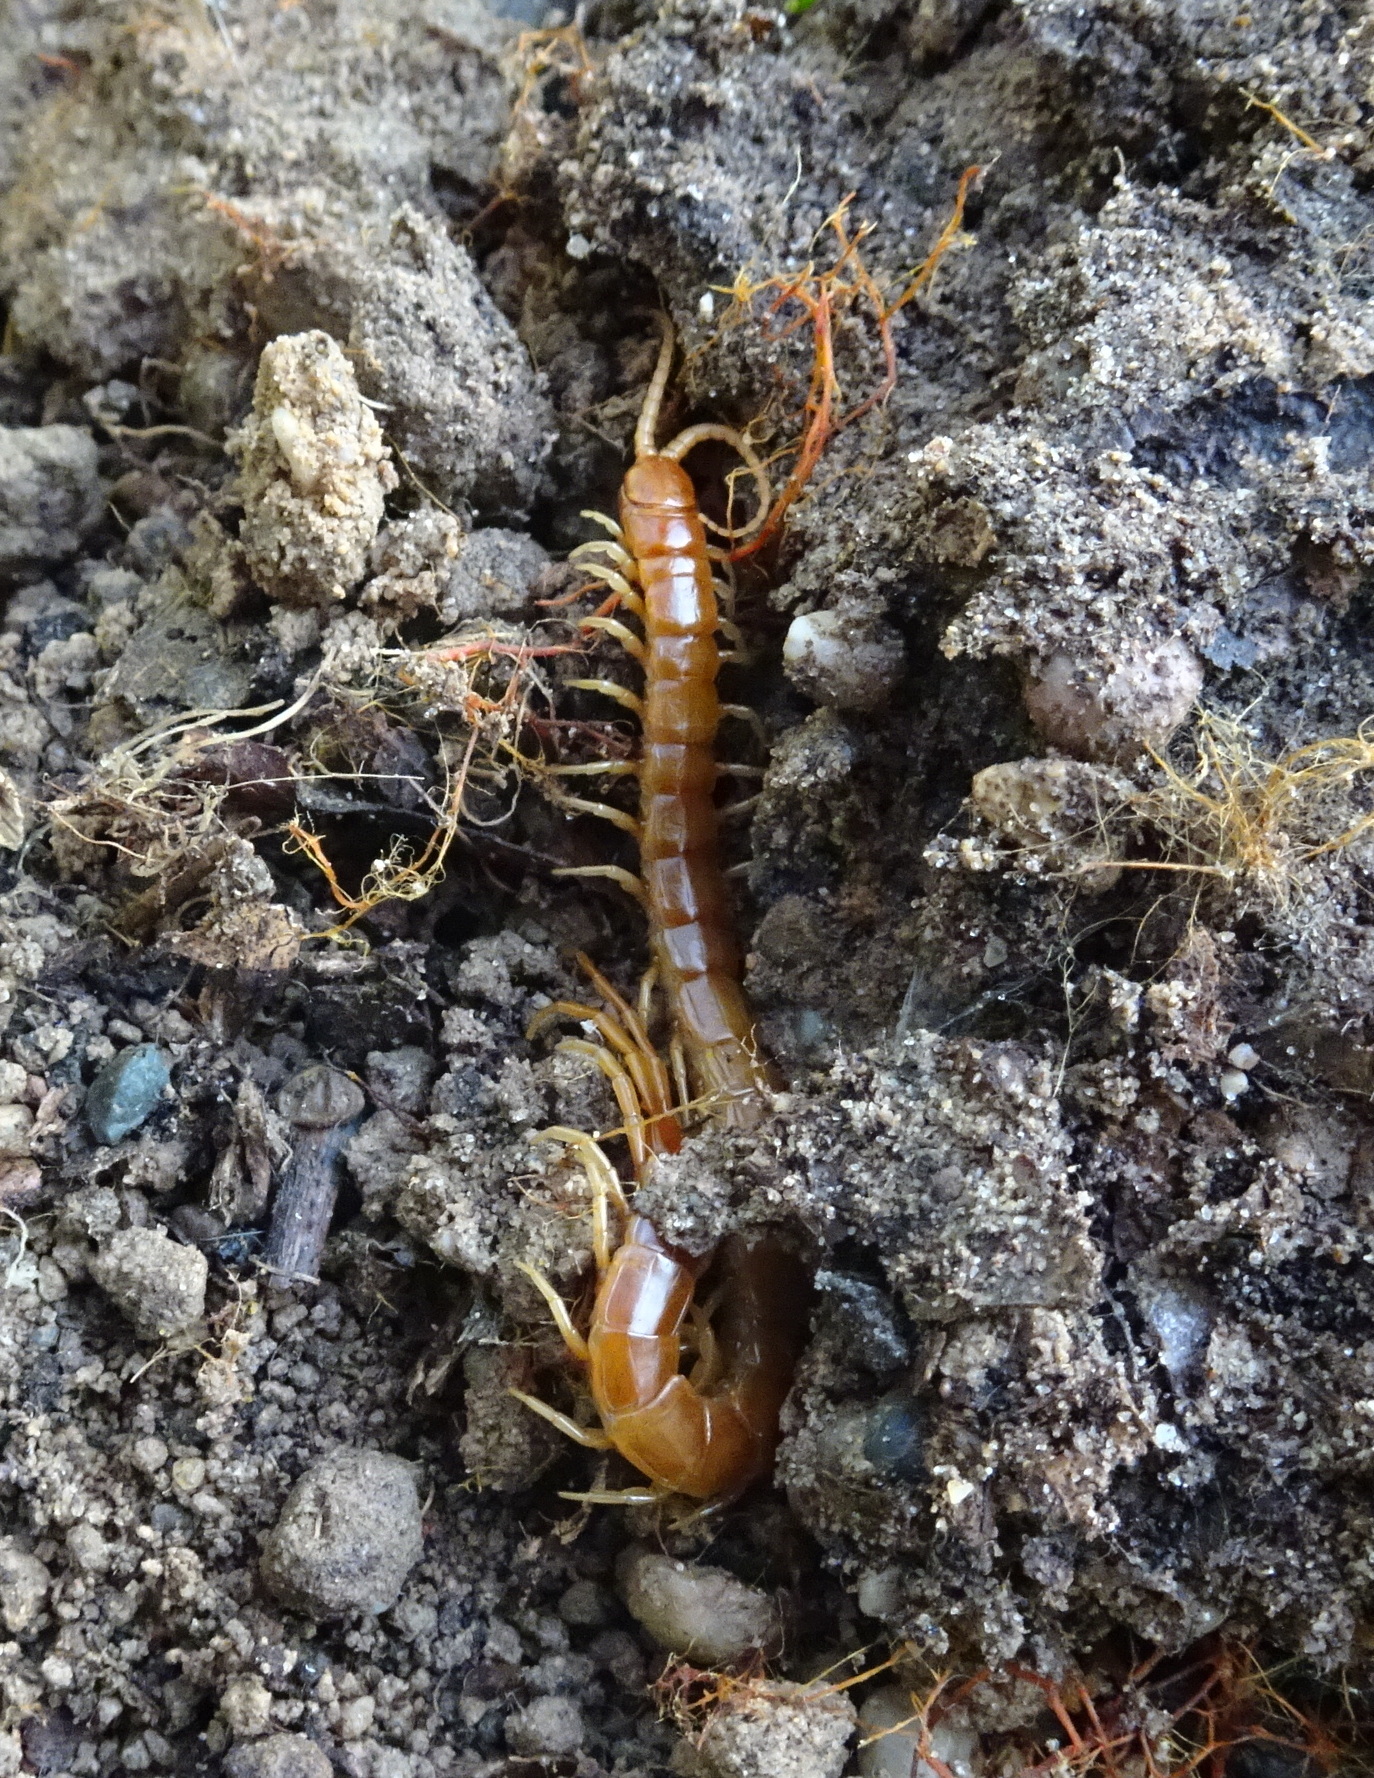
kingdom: Animalia
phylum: Arthropoda
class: Chilopoda
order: Scolopendromorpha
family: Scolopocryptopidae
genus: Scolopocryptops
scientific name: Scolopocryptops gracilis
